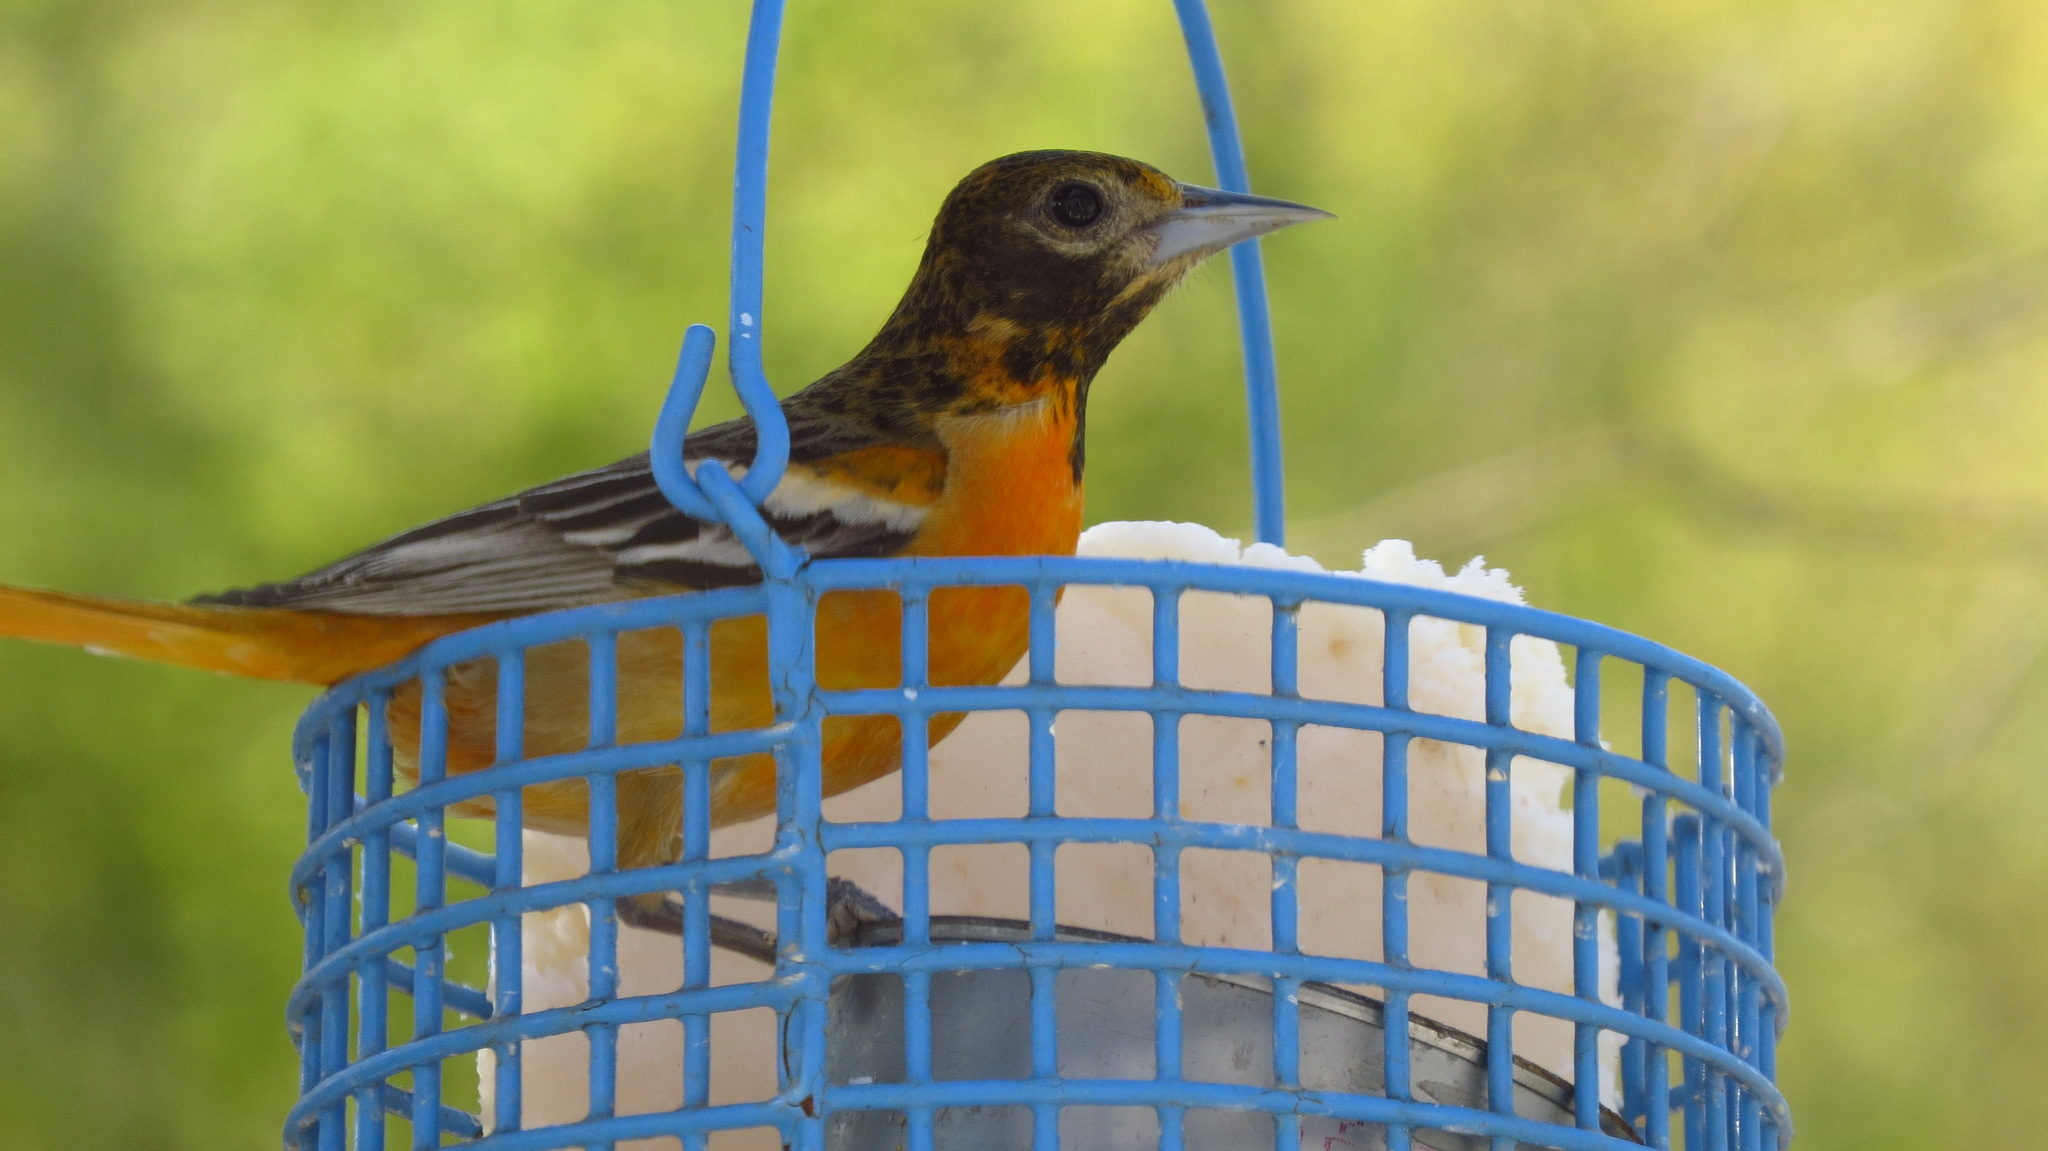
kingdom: Animalia
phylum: Chordata
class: Aves
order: Passeriformes
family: Icteridae
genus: Icterus
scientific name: Icterus galbula
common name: Baltimore oriole
